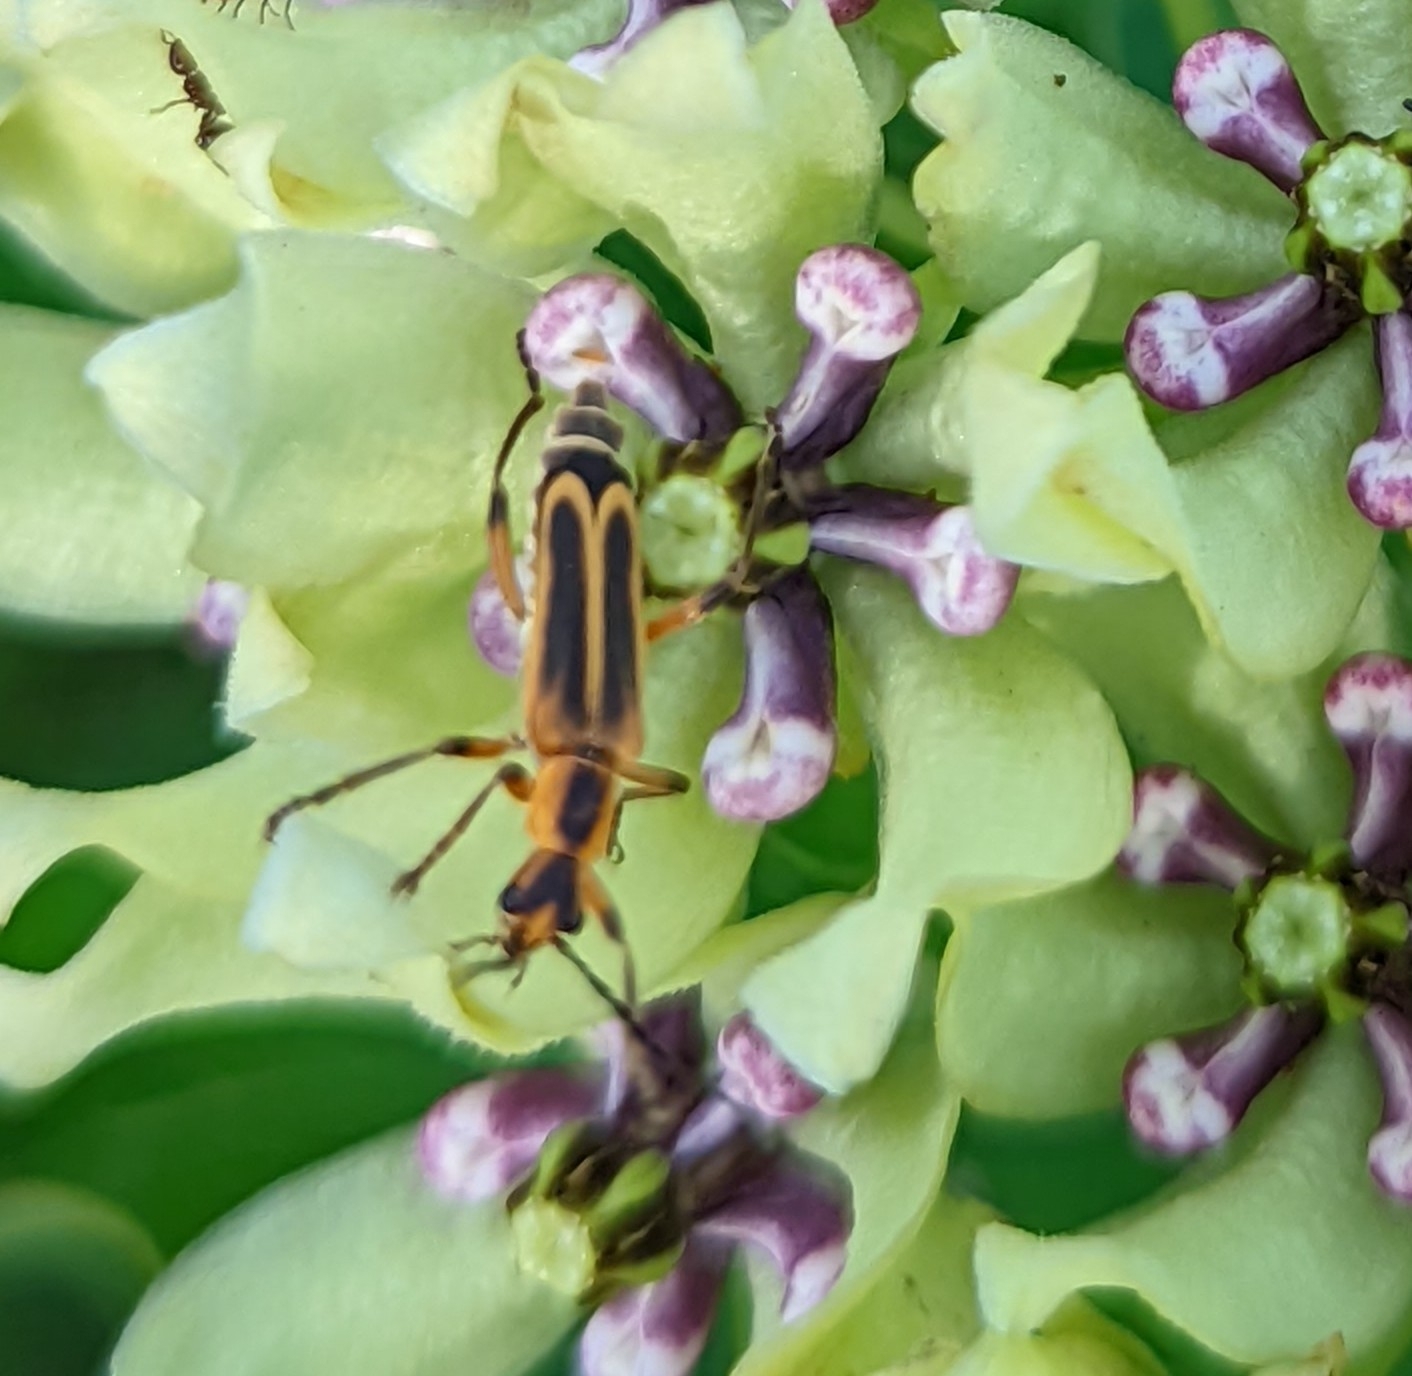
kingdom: Animalia
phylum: Arthropoda
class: Insecta
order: Coleoptera
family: Cantharidae
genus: Chauliognathus
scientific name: Chauliognathus marginatus
